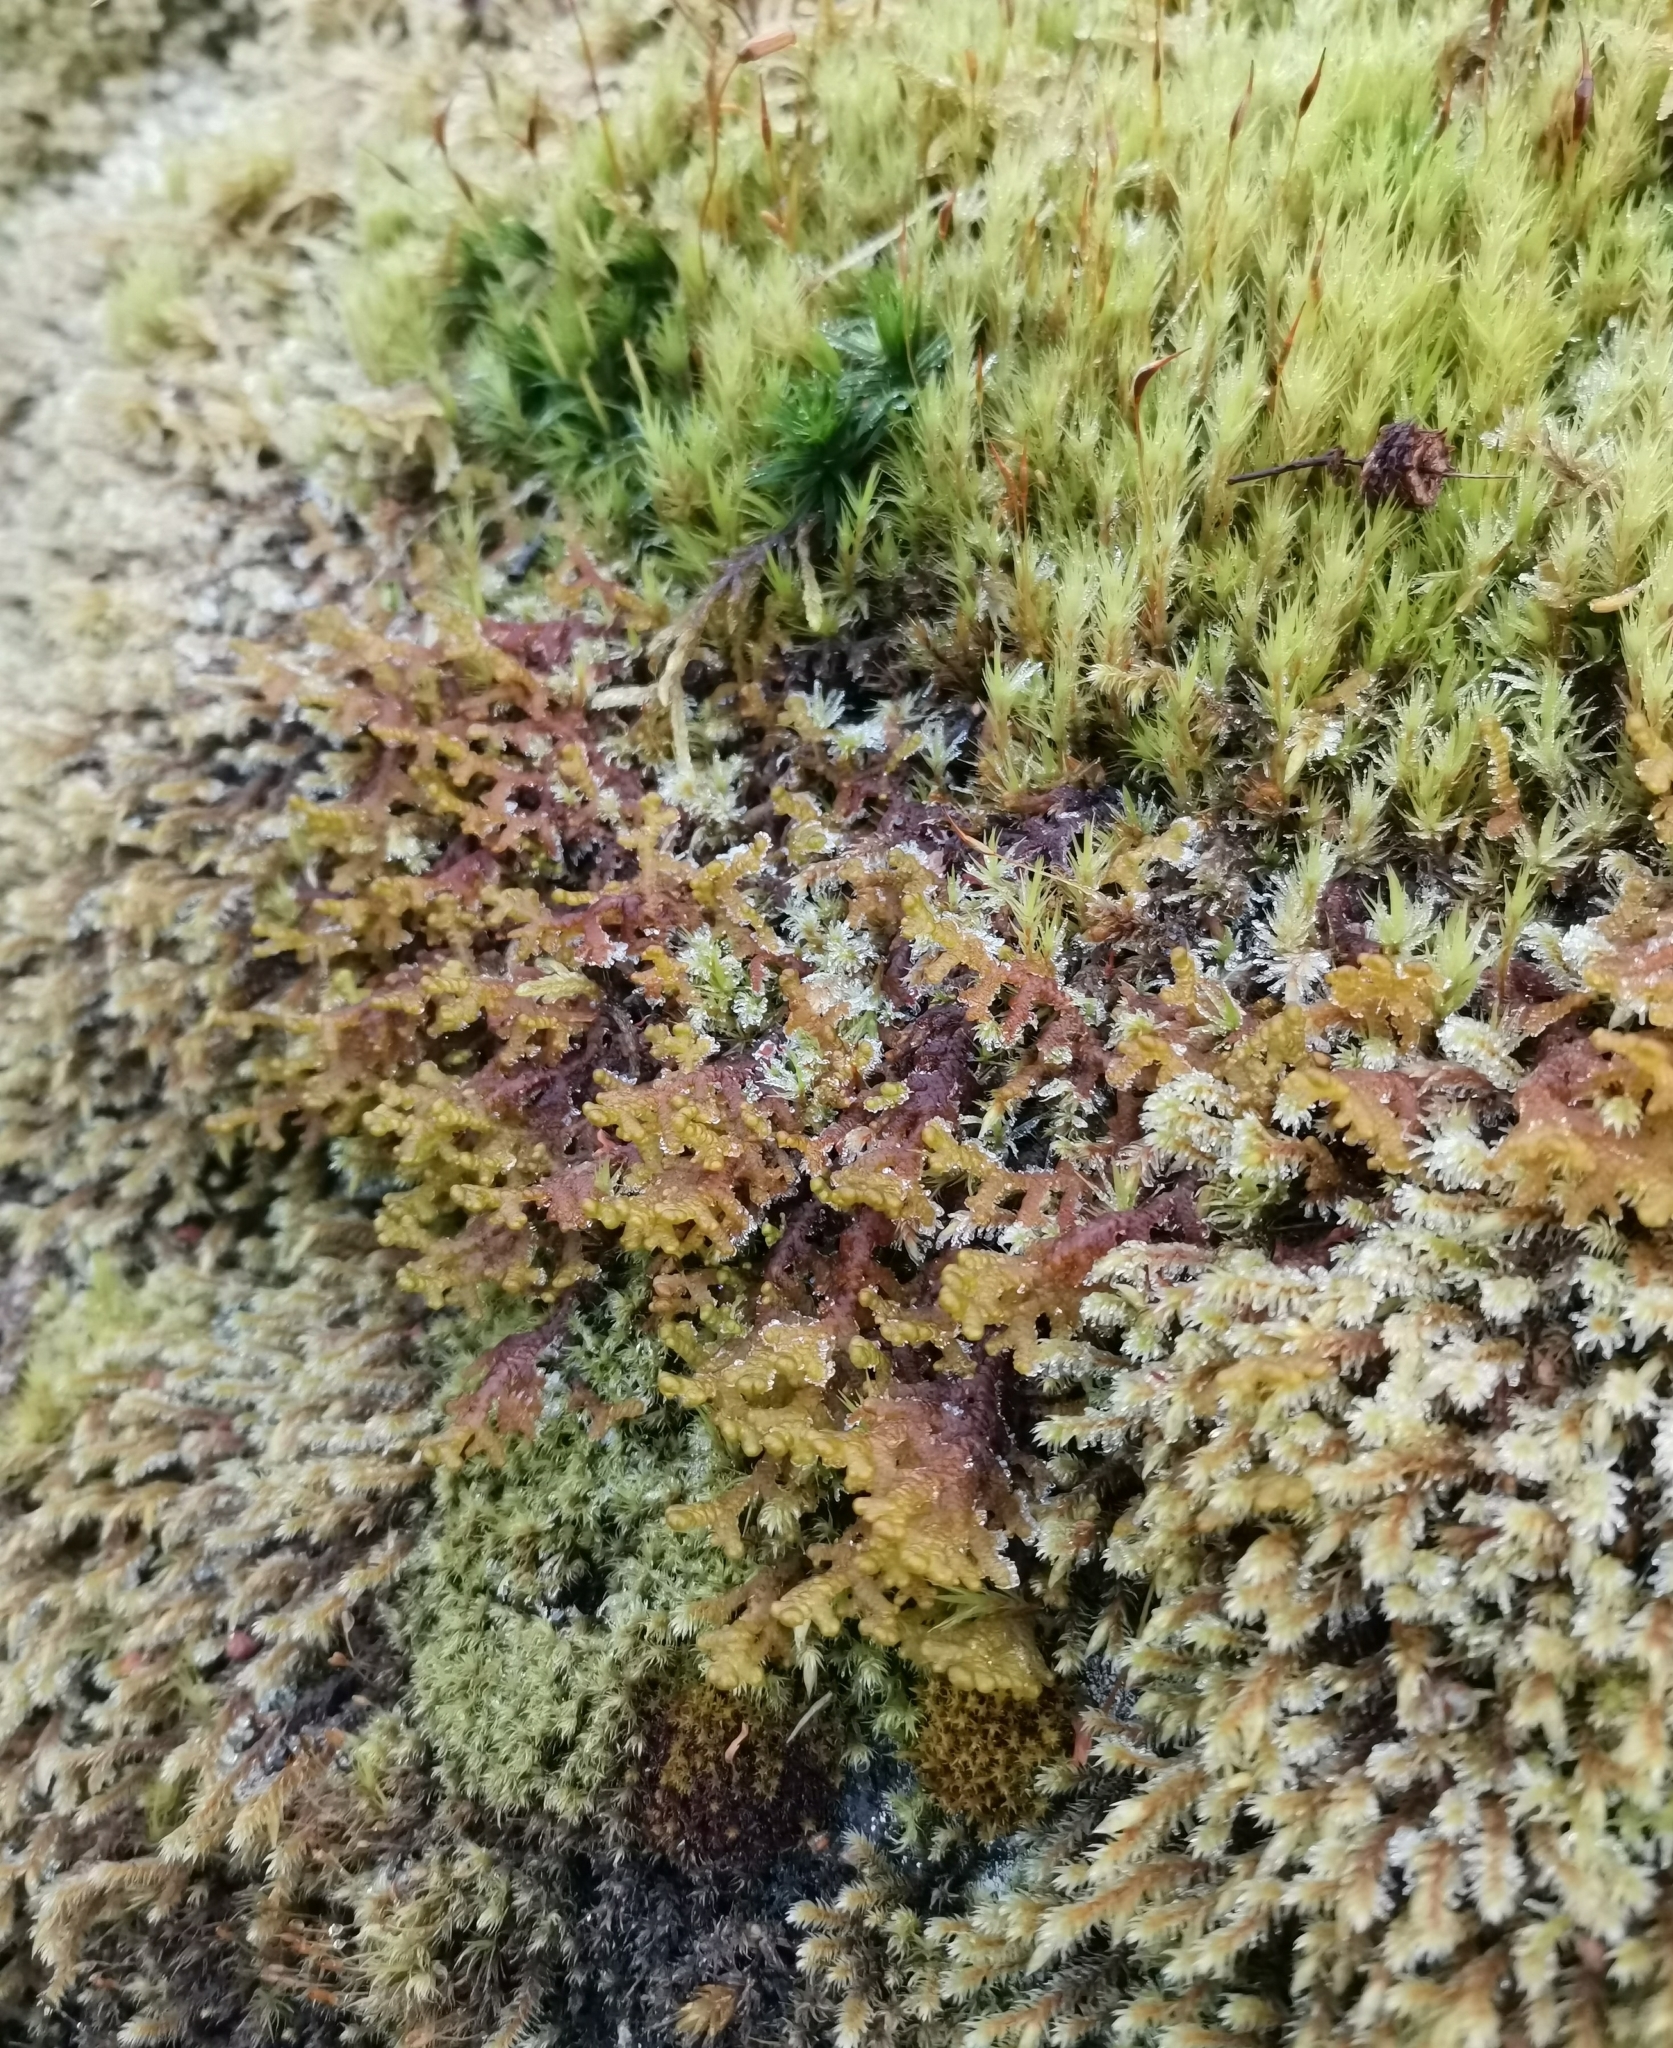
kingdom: Plantae
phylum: Marchantiophyta
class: Jungermanniopsida
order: Ptilidiales
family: Ptilidiaceae
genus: Ptilidium
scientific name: Ptilidium ciliare
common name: Ciliate fringewort
